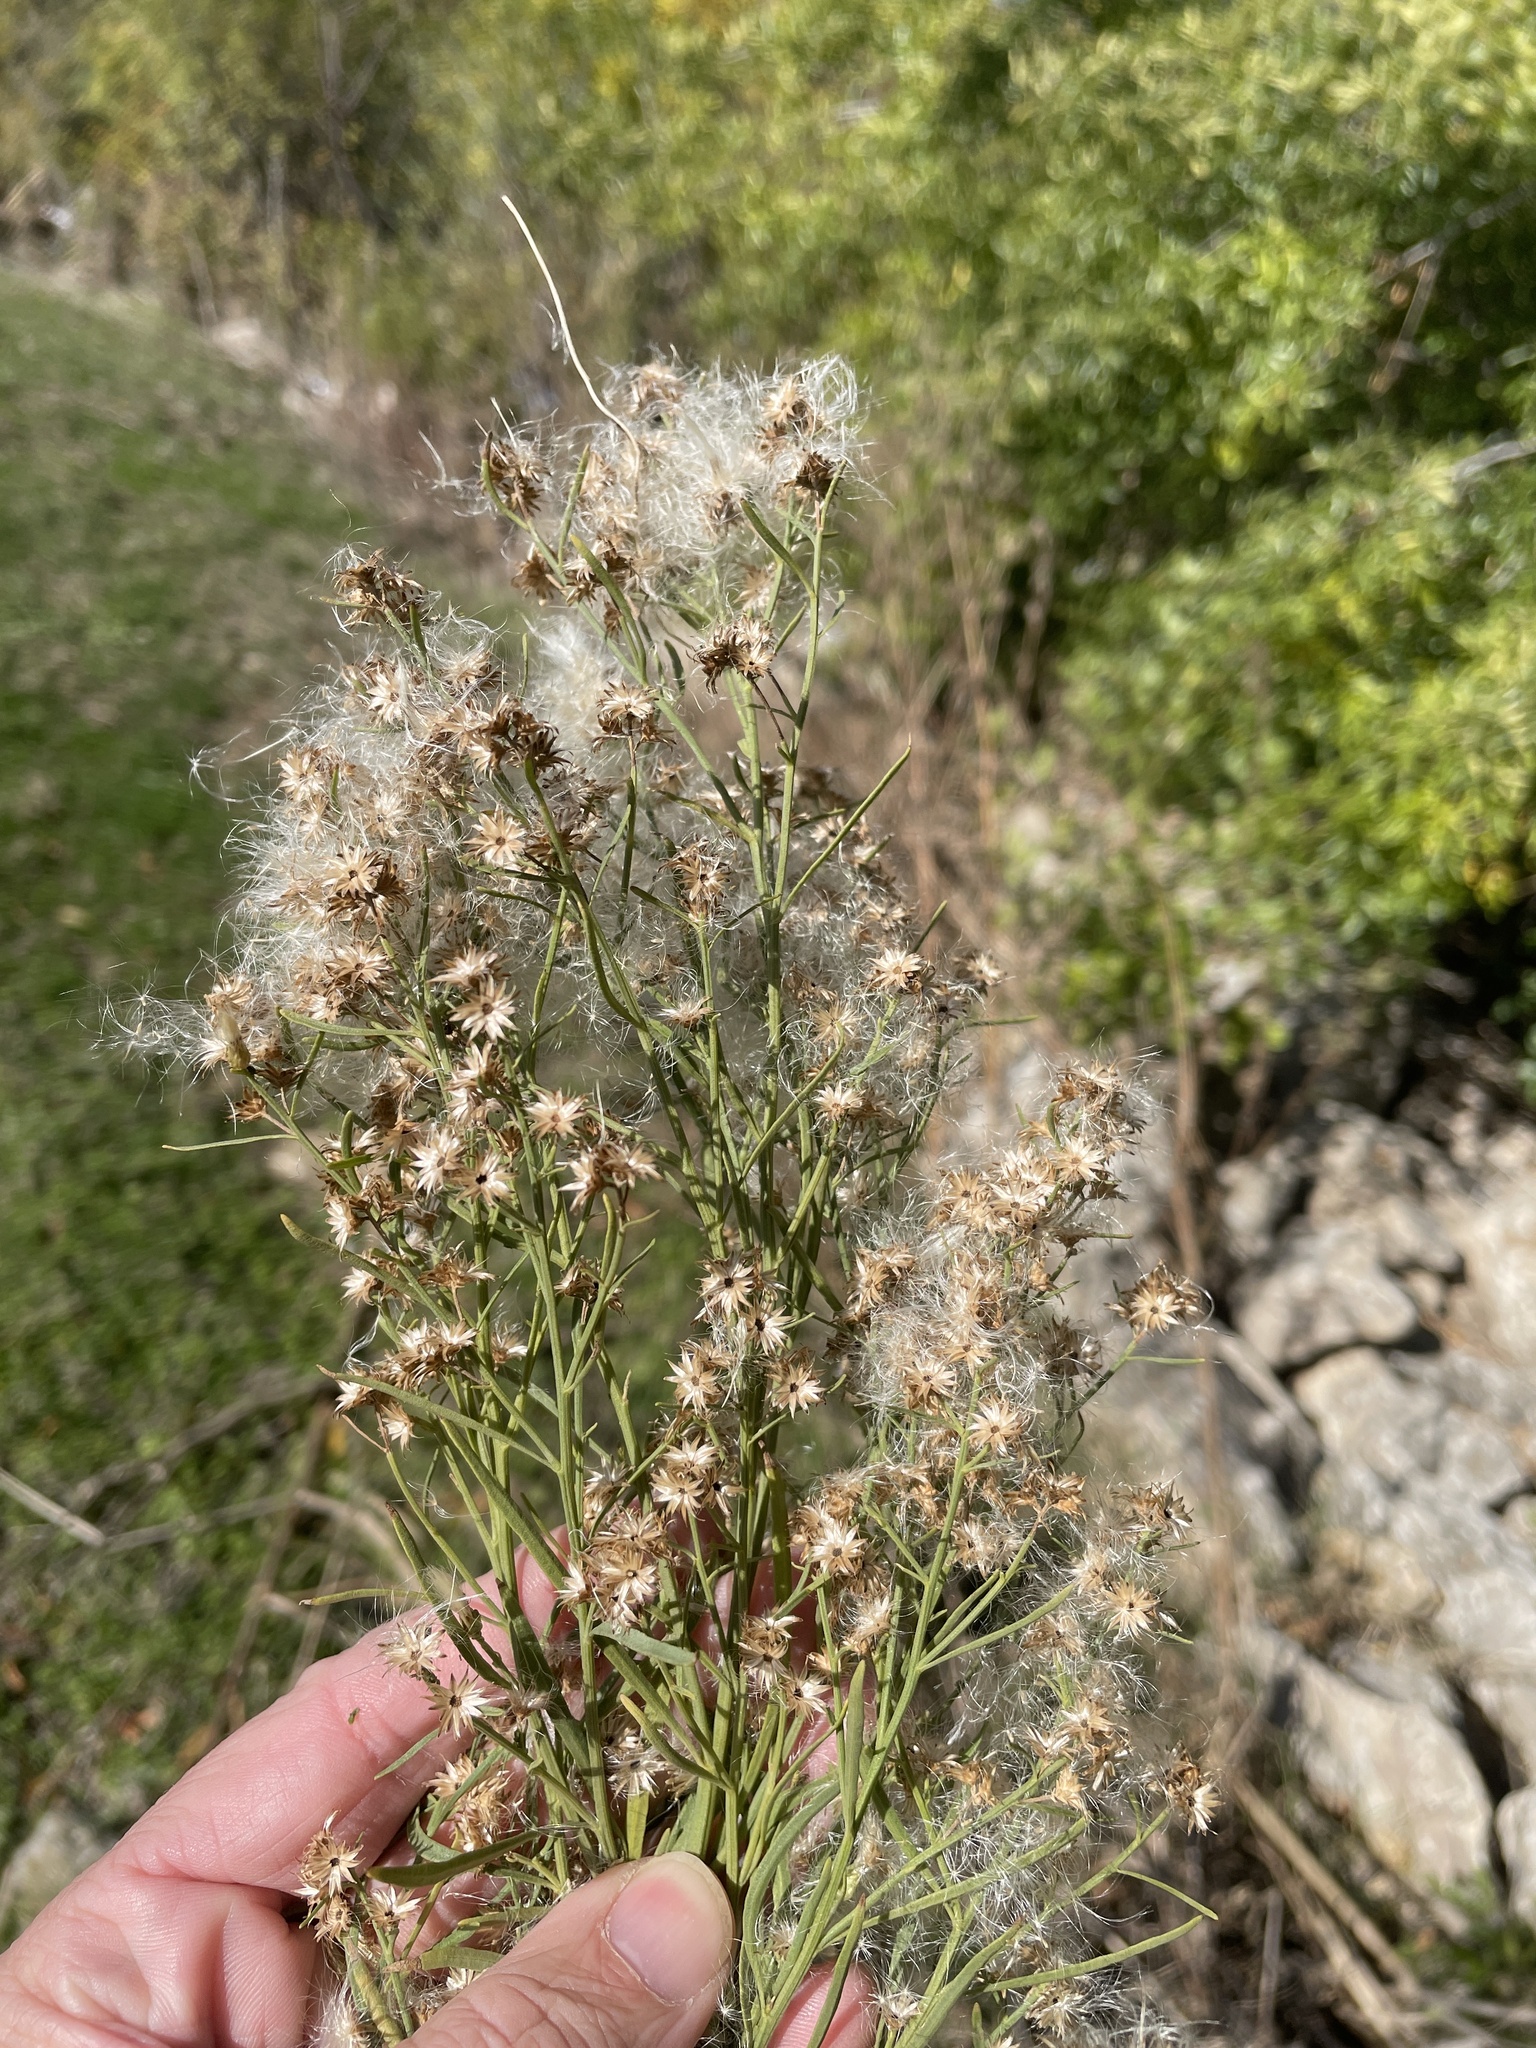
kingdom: Plantae
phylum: Tracheophyta
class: Magnoliopsida
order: Asterales
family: Asteraceae
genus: Baccharis
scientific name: Baccharis neglecta
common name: Roosevelt-weed
